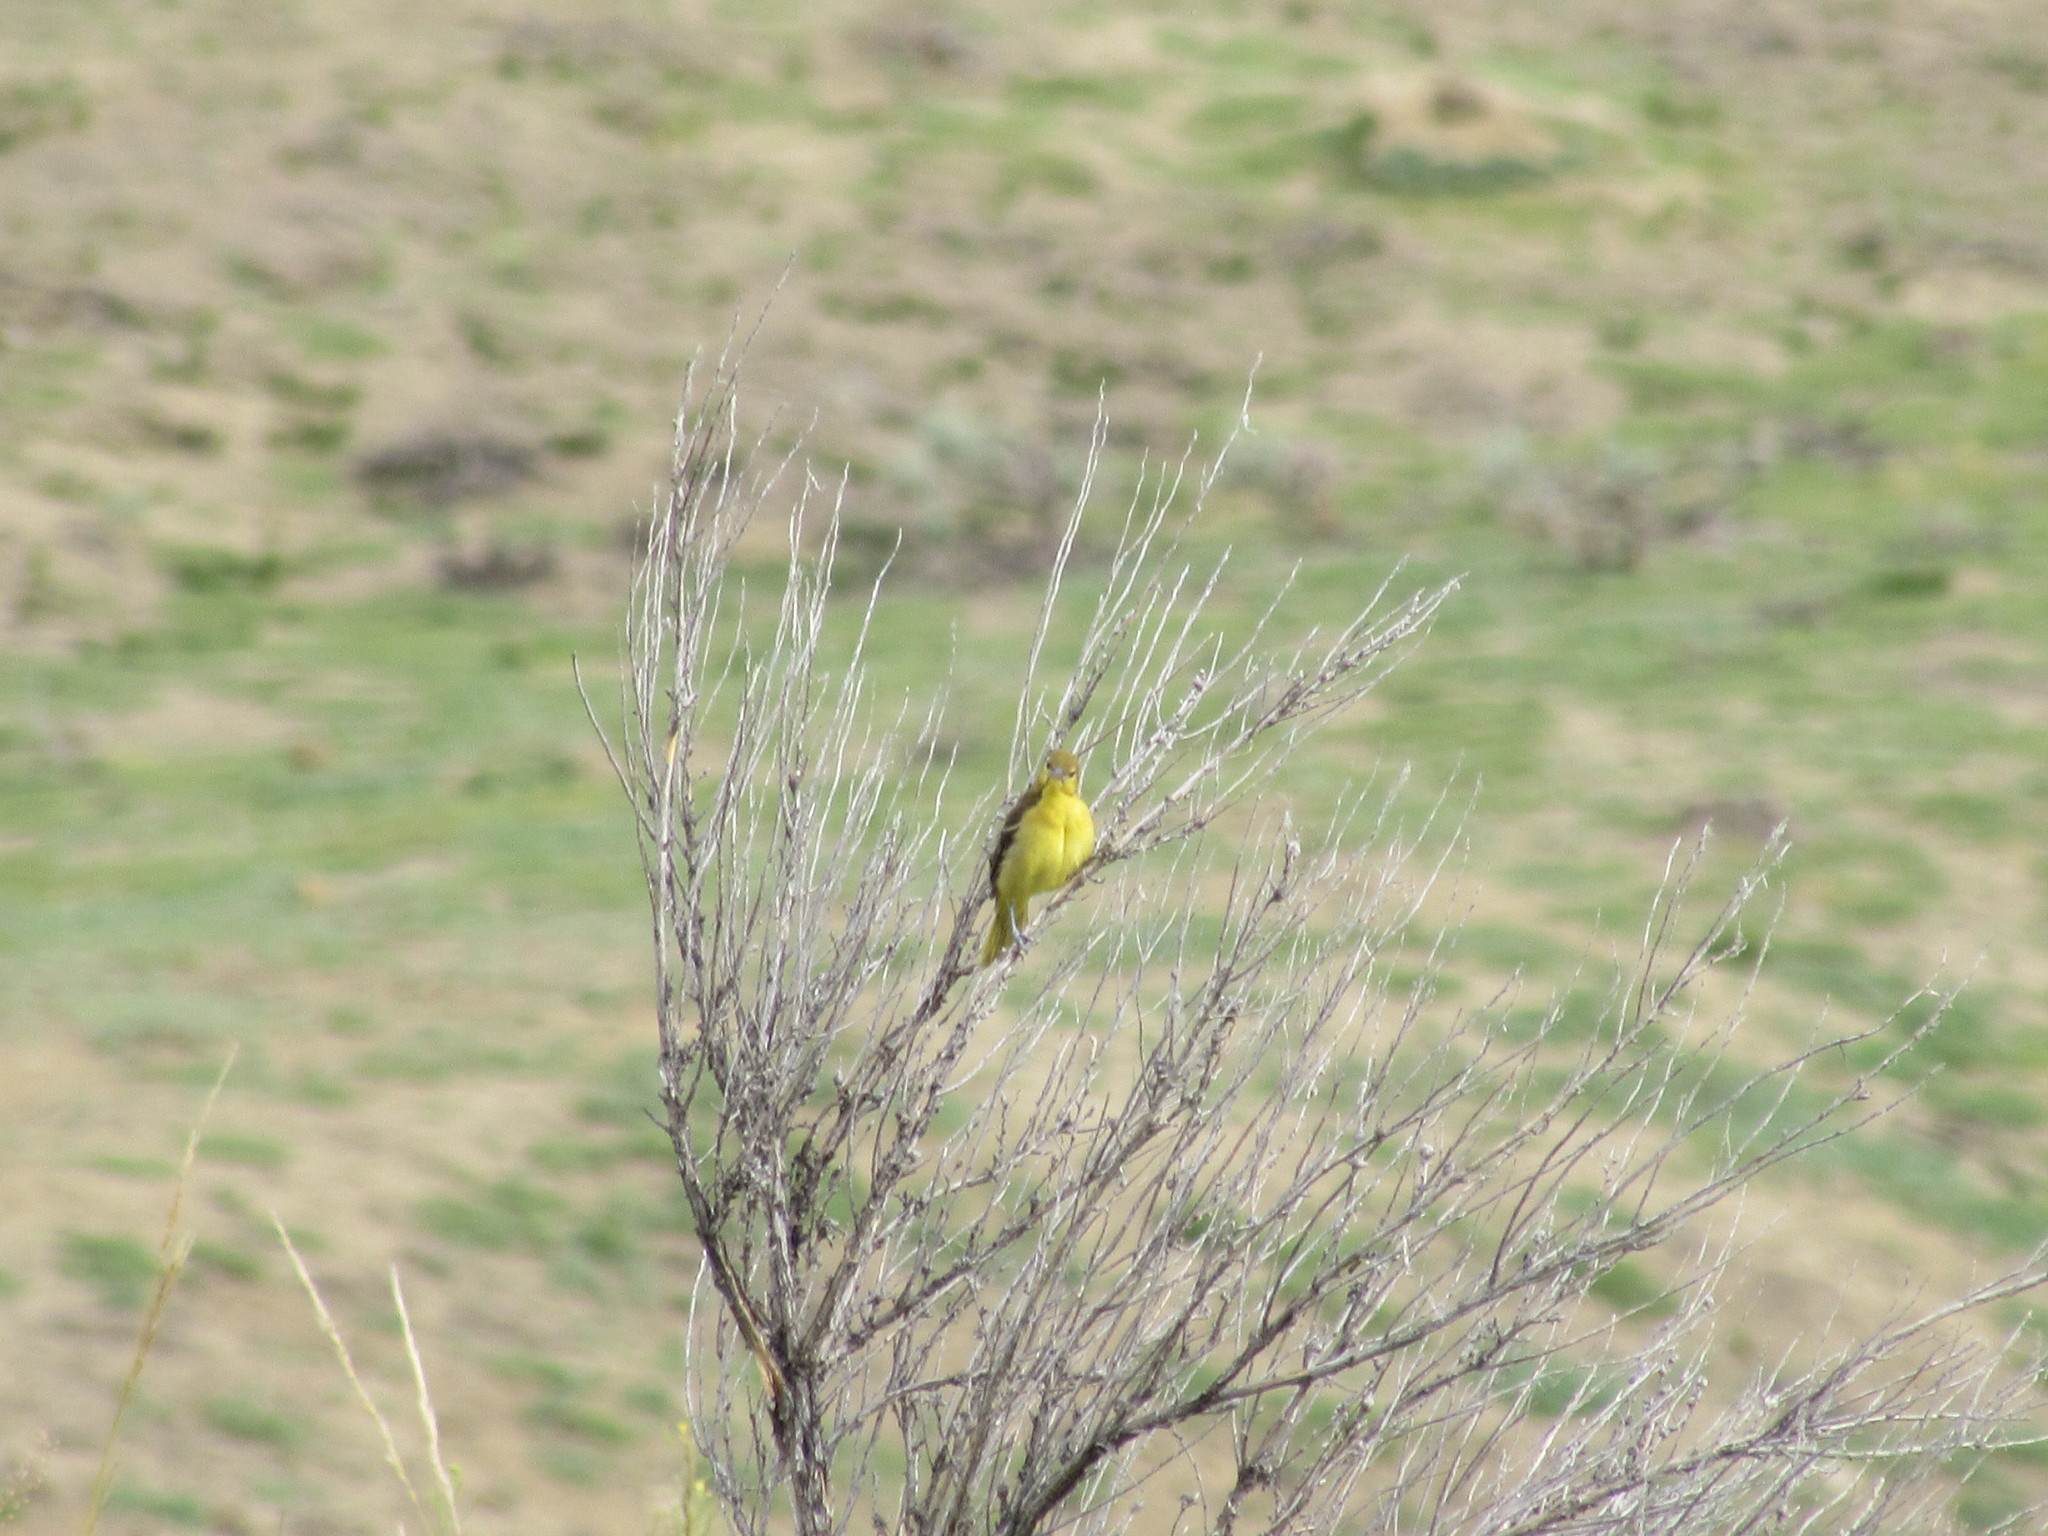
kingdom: Animalia
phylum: Chordata
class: Aves
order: Passeriformes
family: Cardinalidae
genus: Piranga
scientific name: Piranga ludoviciana
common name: Western tanager
